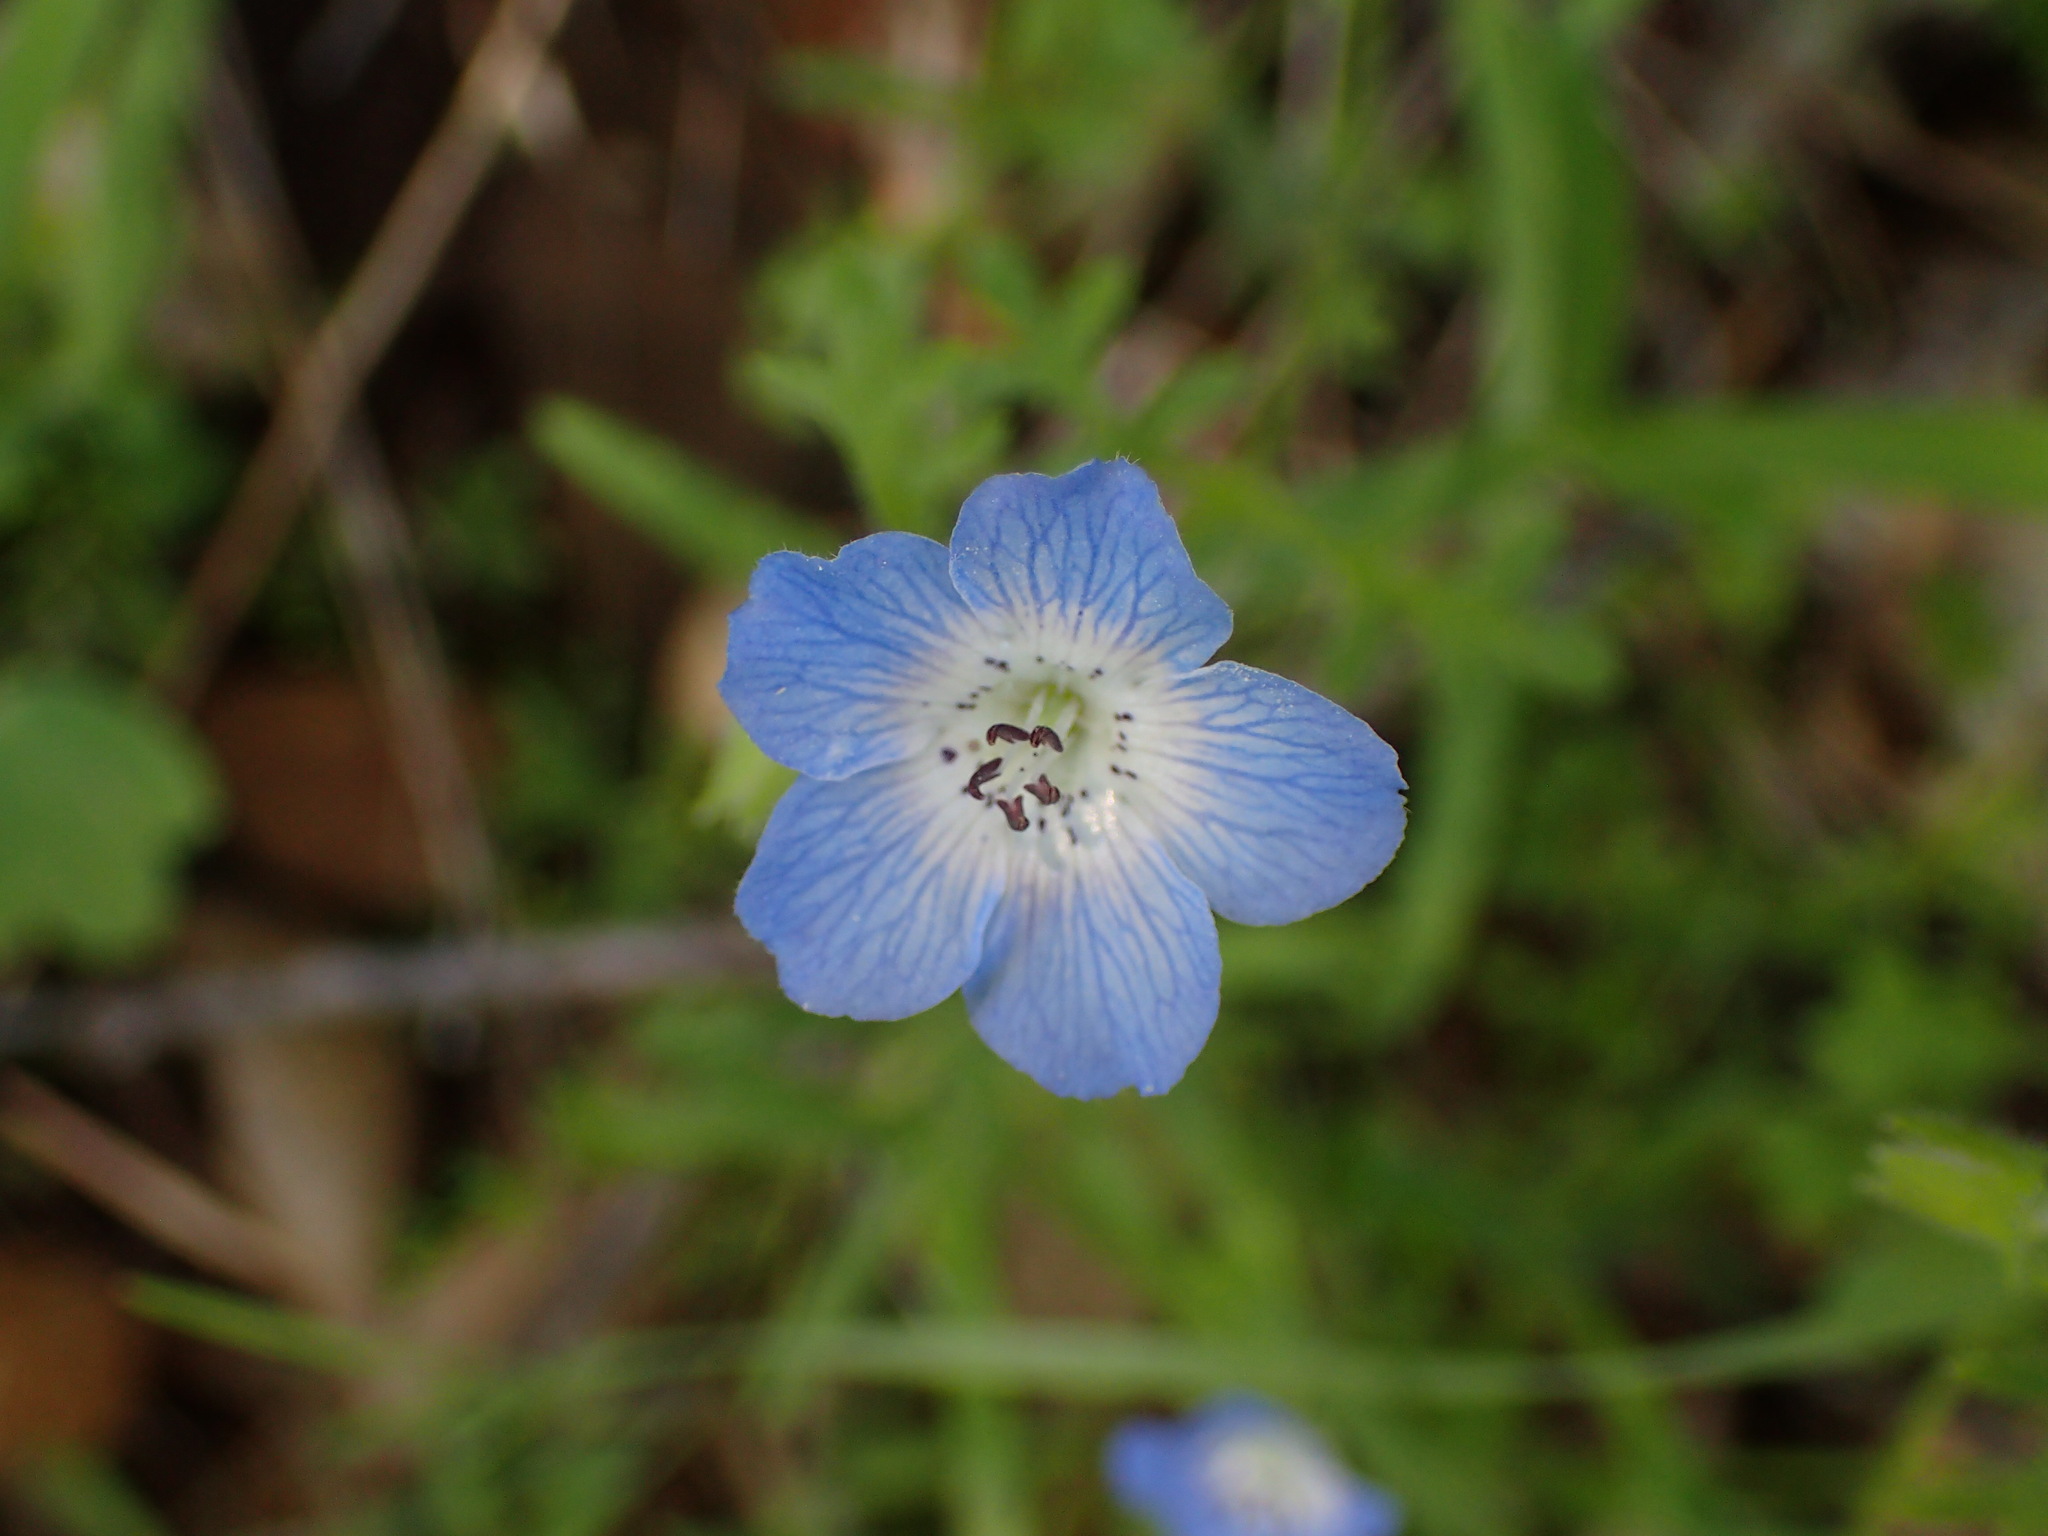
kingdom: Plantae
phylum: Tracheophyta
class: Magnoliopsida
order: Boraginales
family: Hydrophyllaceae
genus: Nemophila
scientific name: Nemophila menziesii
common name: Baby's-blue-eyes
